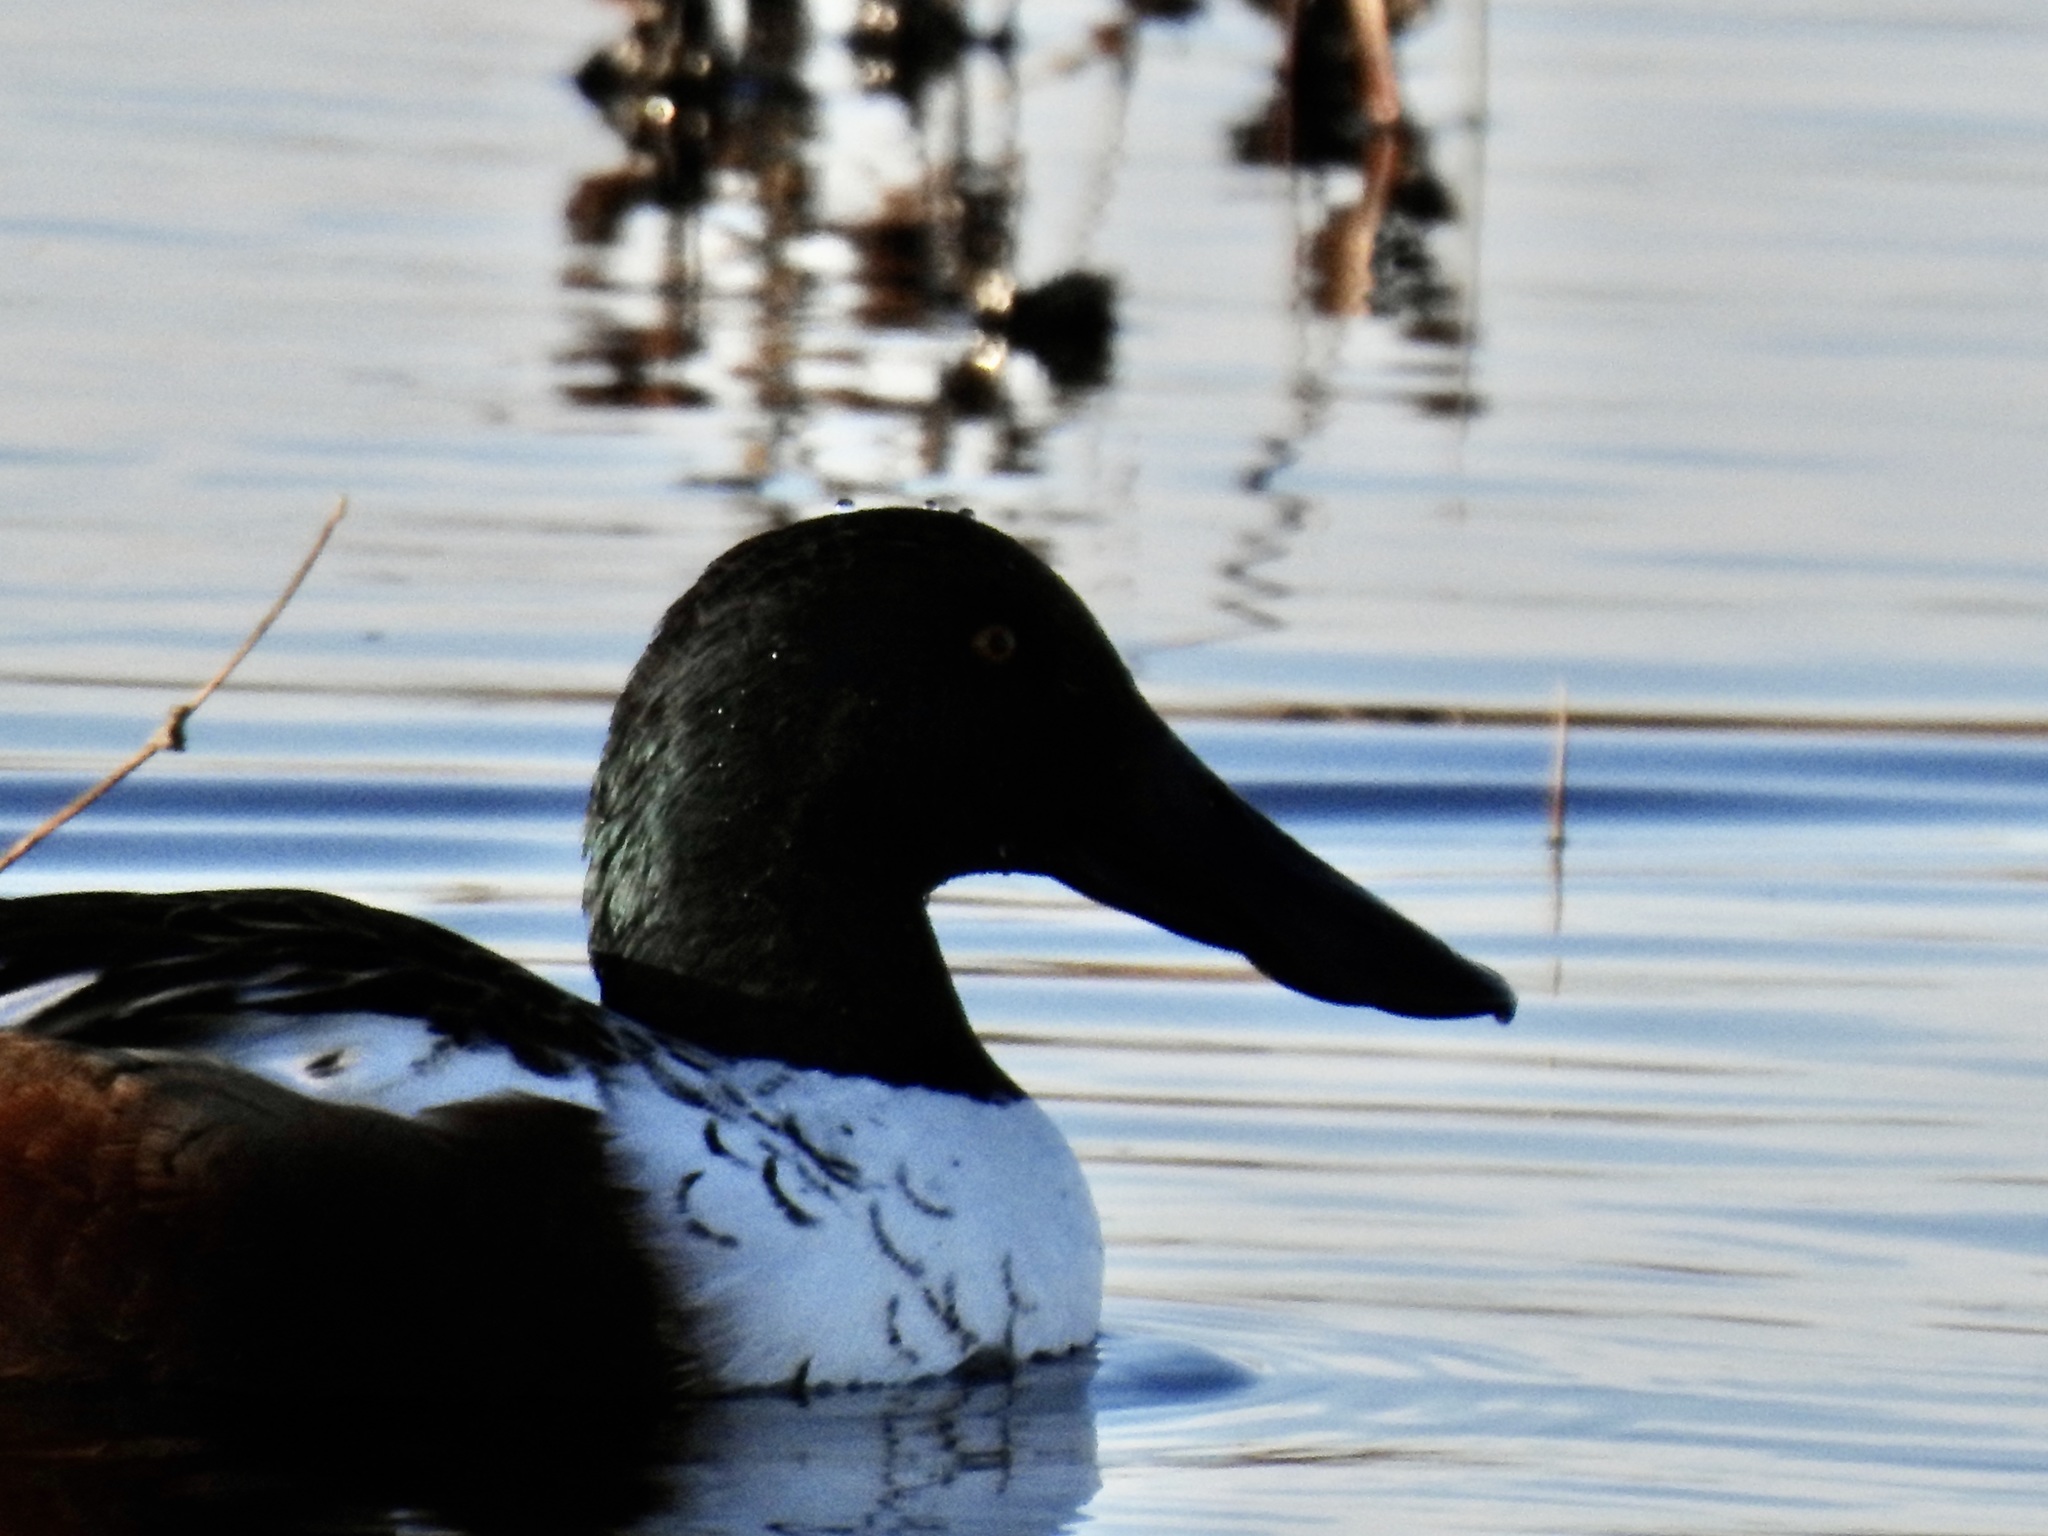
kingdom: Animalia
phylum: Chordata
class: Aves
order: Anseriformes
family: Anatidae
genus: Spatula
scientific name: Spatula clypeata
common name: Northern shoveler
